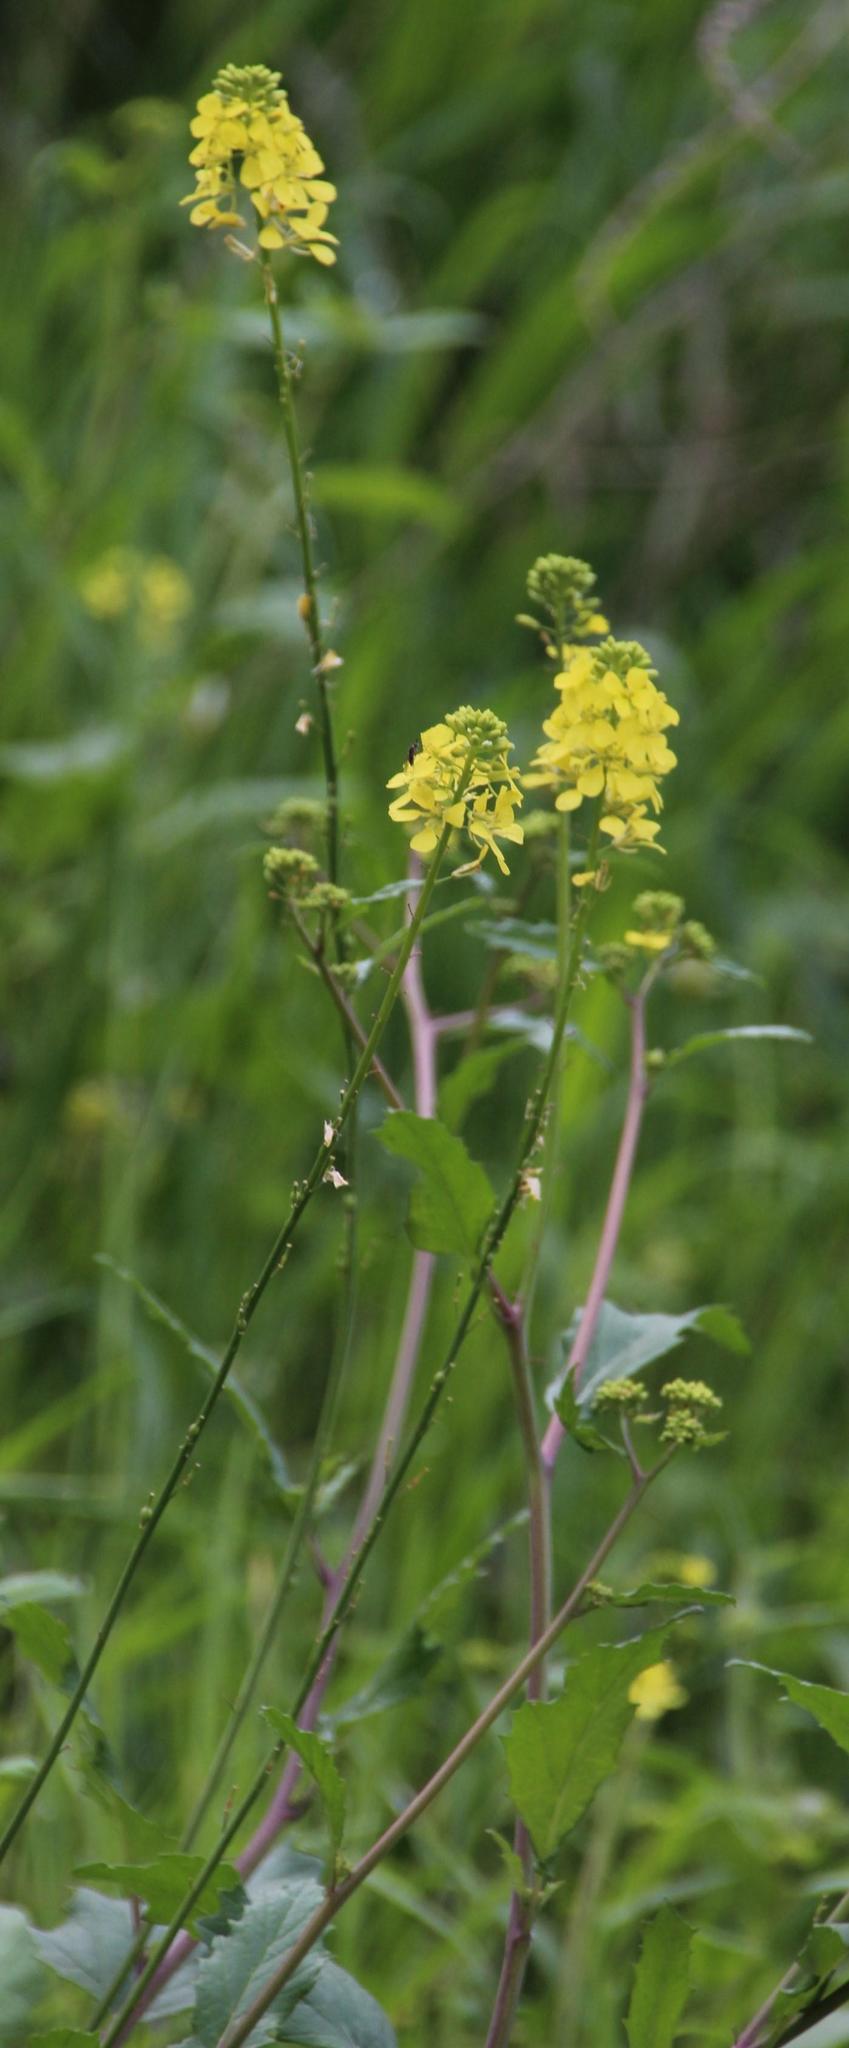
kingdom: Plantae
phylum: Tracheophyta
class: Magnoliopsida
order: Brassicales
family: Brassicaceae
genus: Rapistrum
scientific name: Rapistrum rugosum
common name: Annual bastardcabbage
